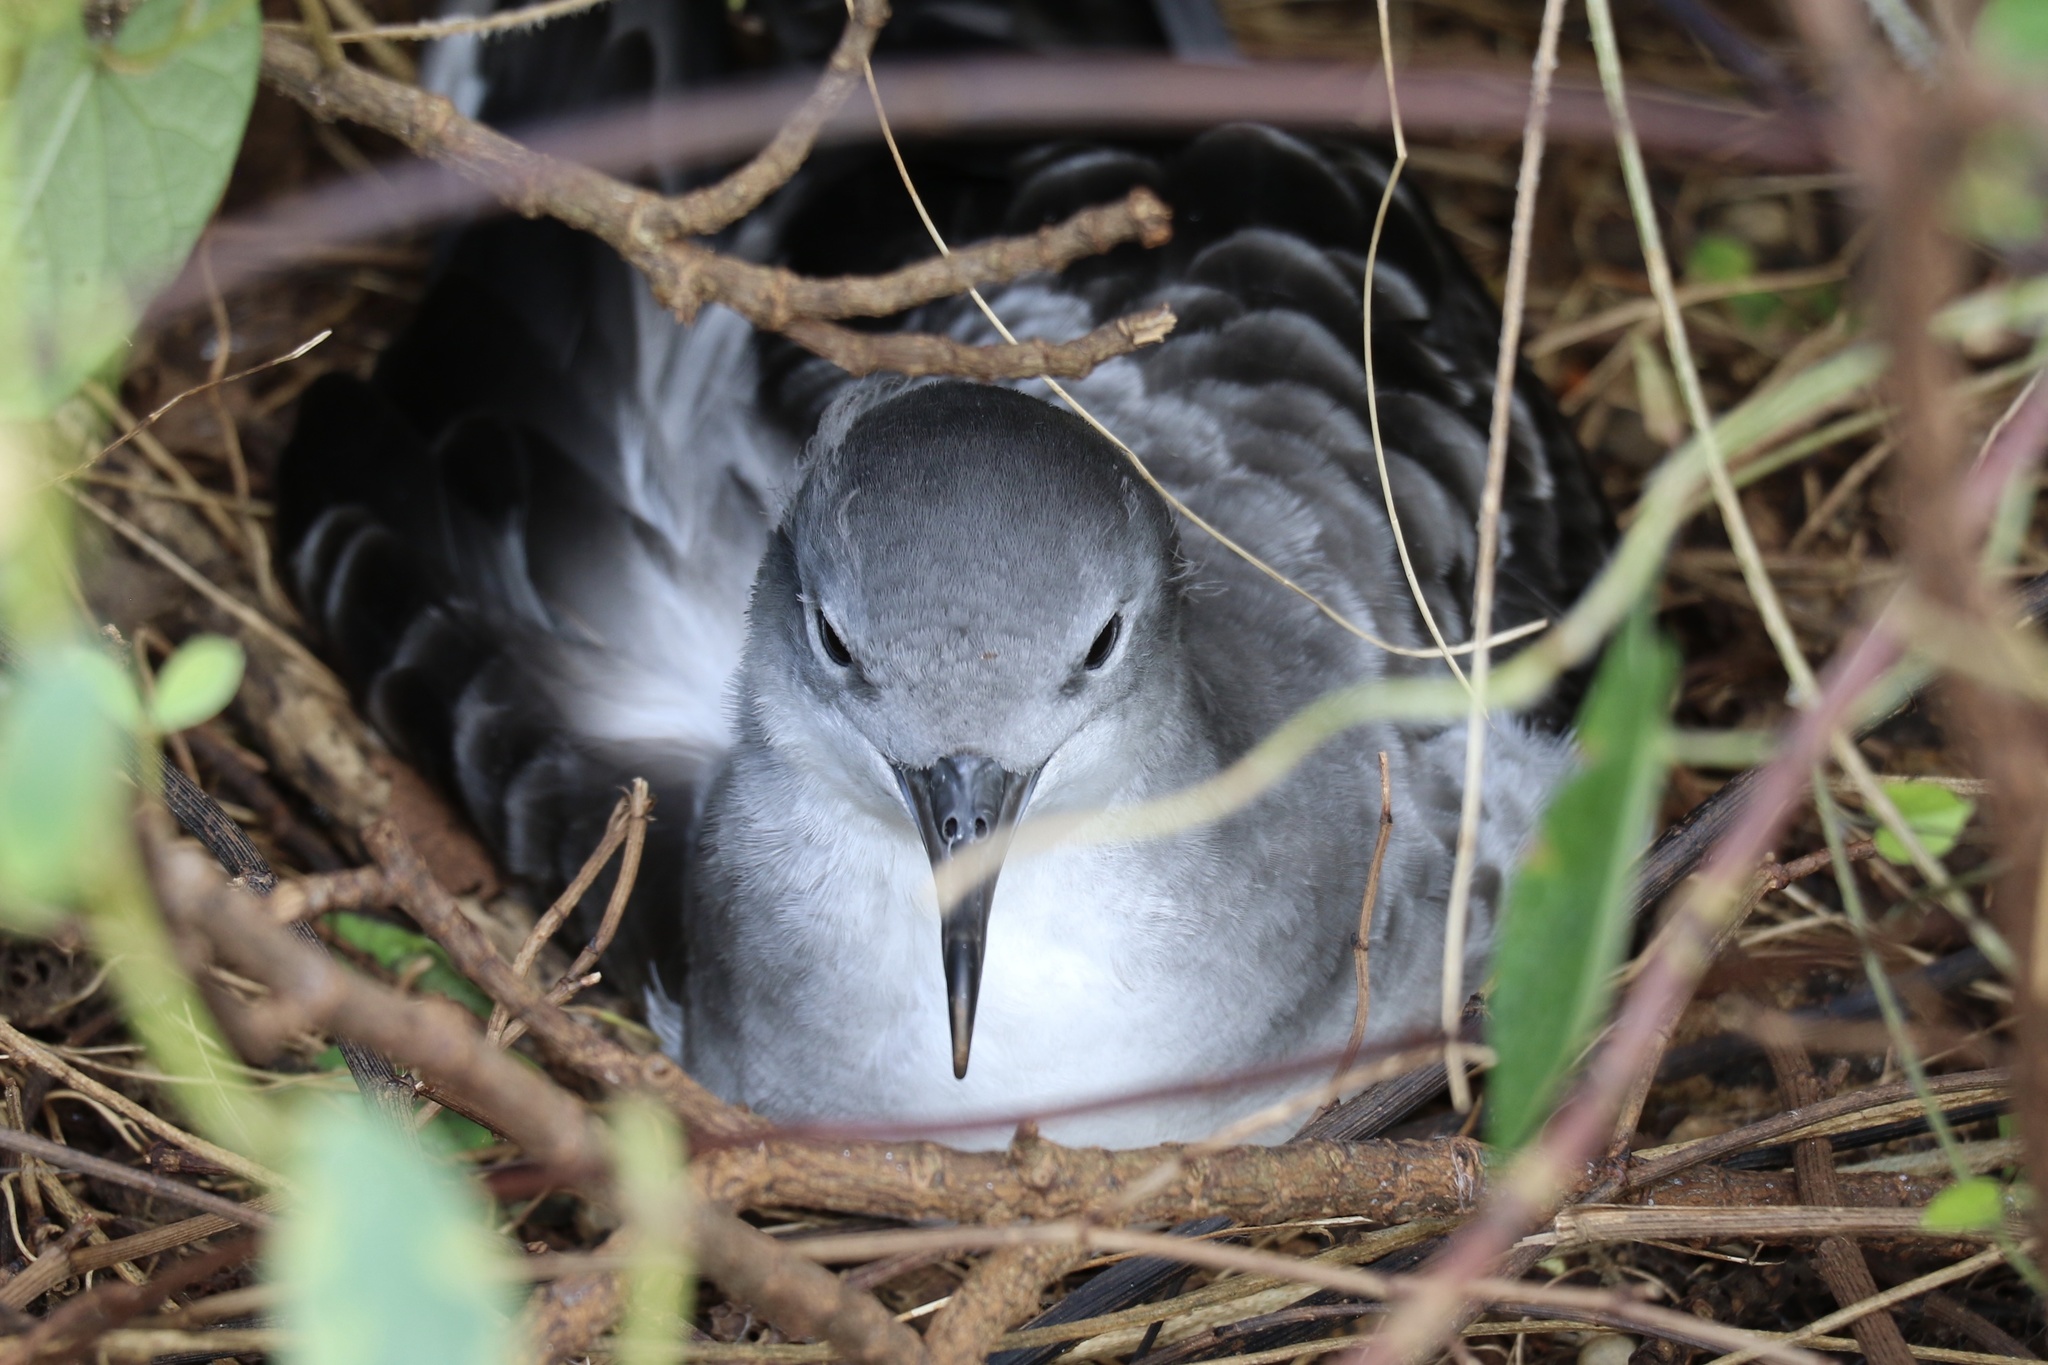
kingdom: Animalia
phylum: Chordata
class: Aves
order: Procellariiformes
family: Procellariidae
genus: Puffinus
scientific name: Puffinus pacificus
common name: Wedge-tailed shearwater
